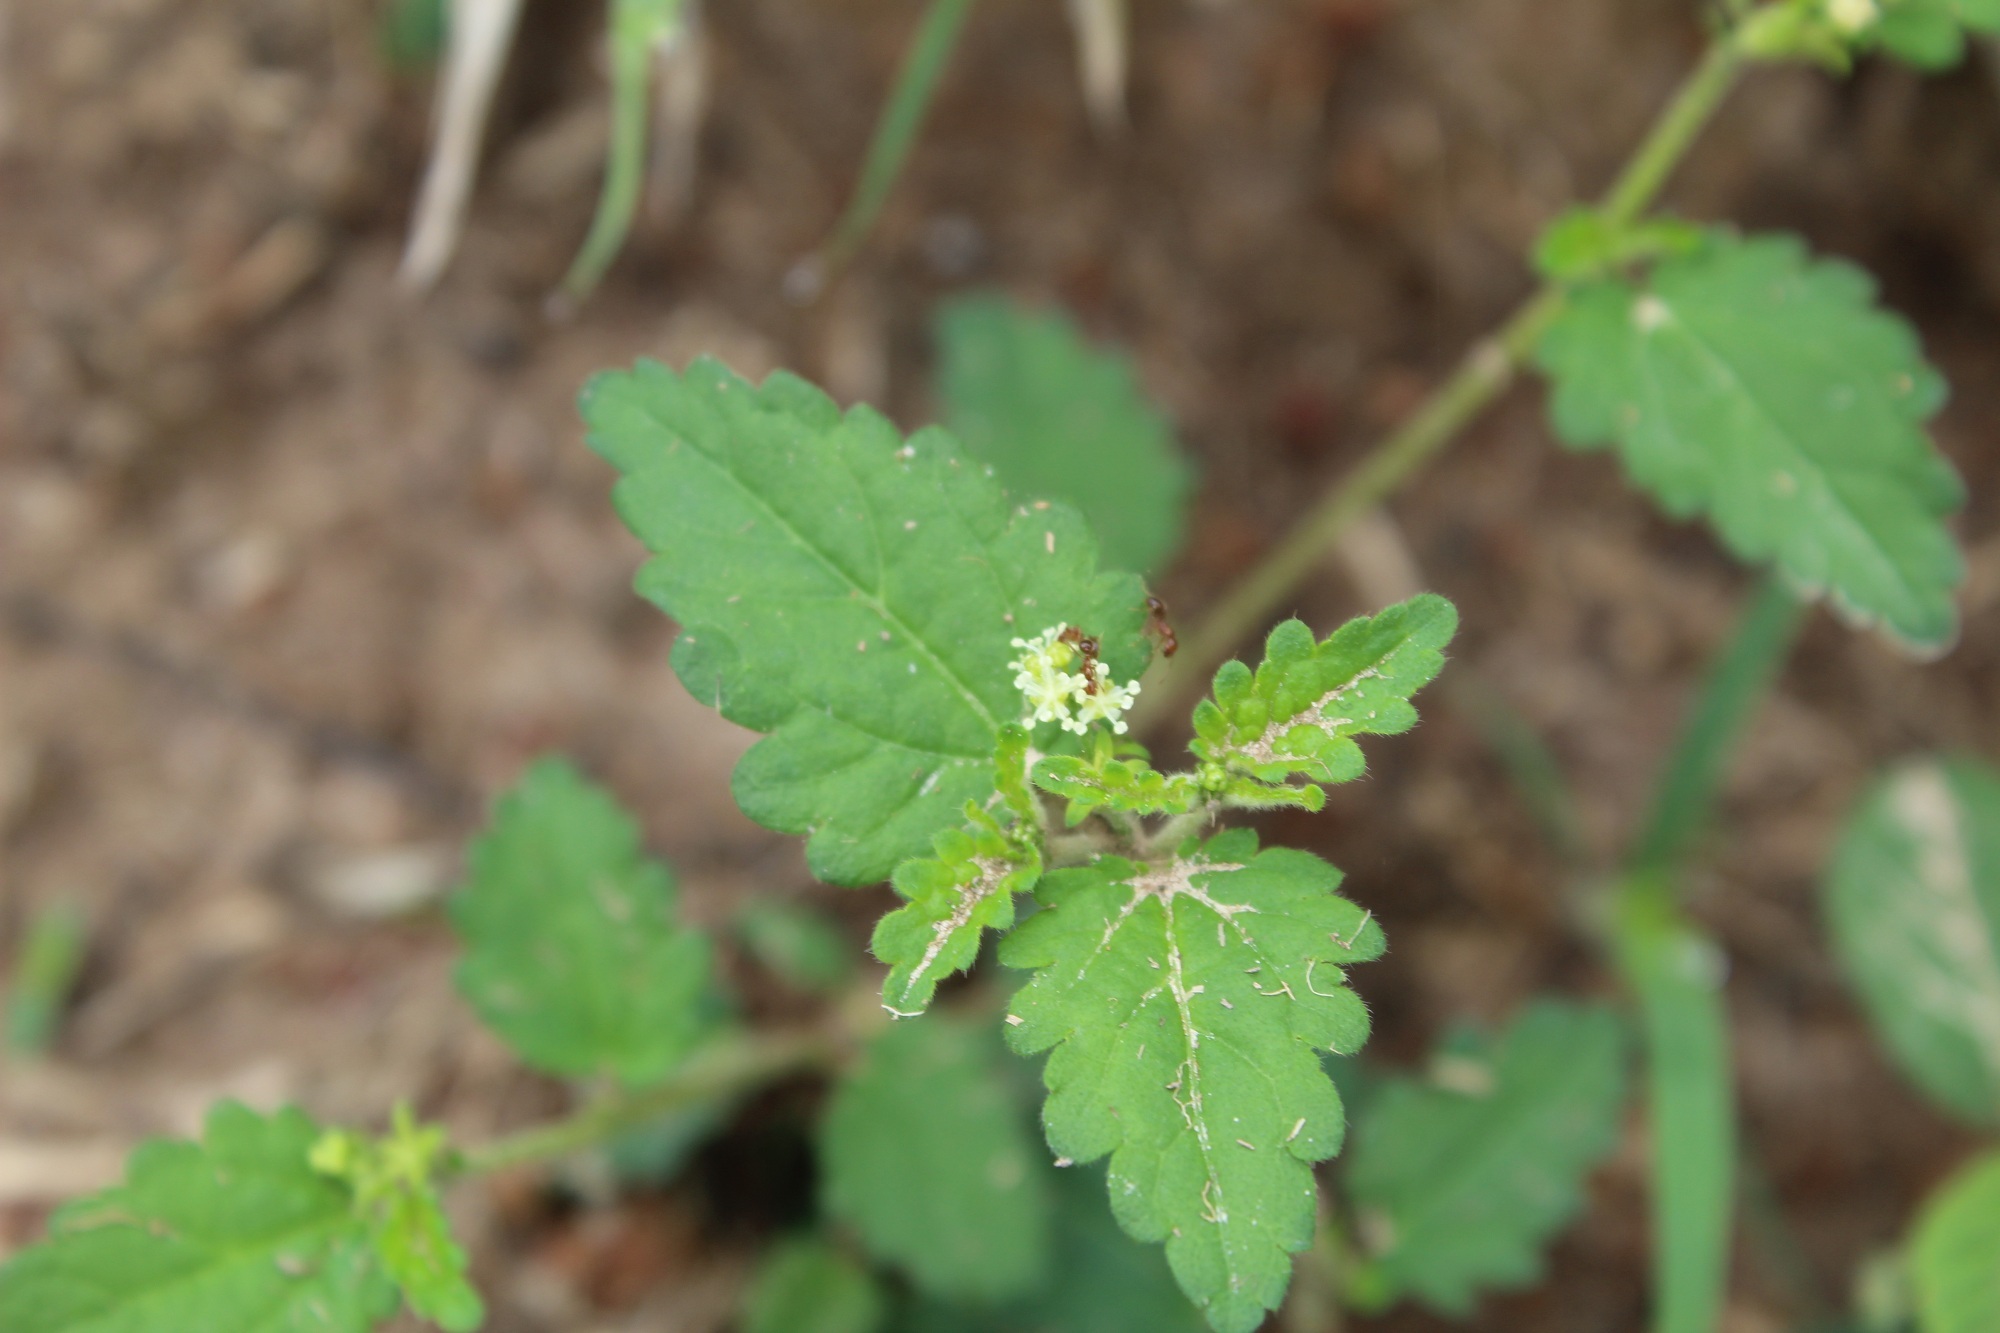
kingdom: Plantae
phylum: Tracheophyta
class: Magnoliopsida
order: Malpighiales
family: Euphorbiaceae
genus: Croton
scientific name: Croton trinitatis
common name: Roadside croton
